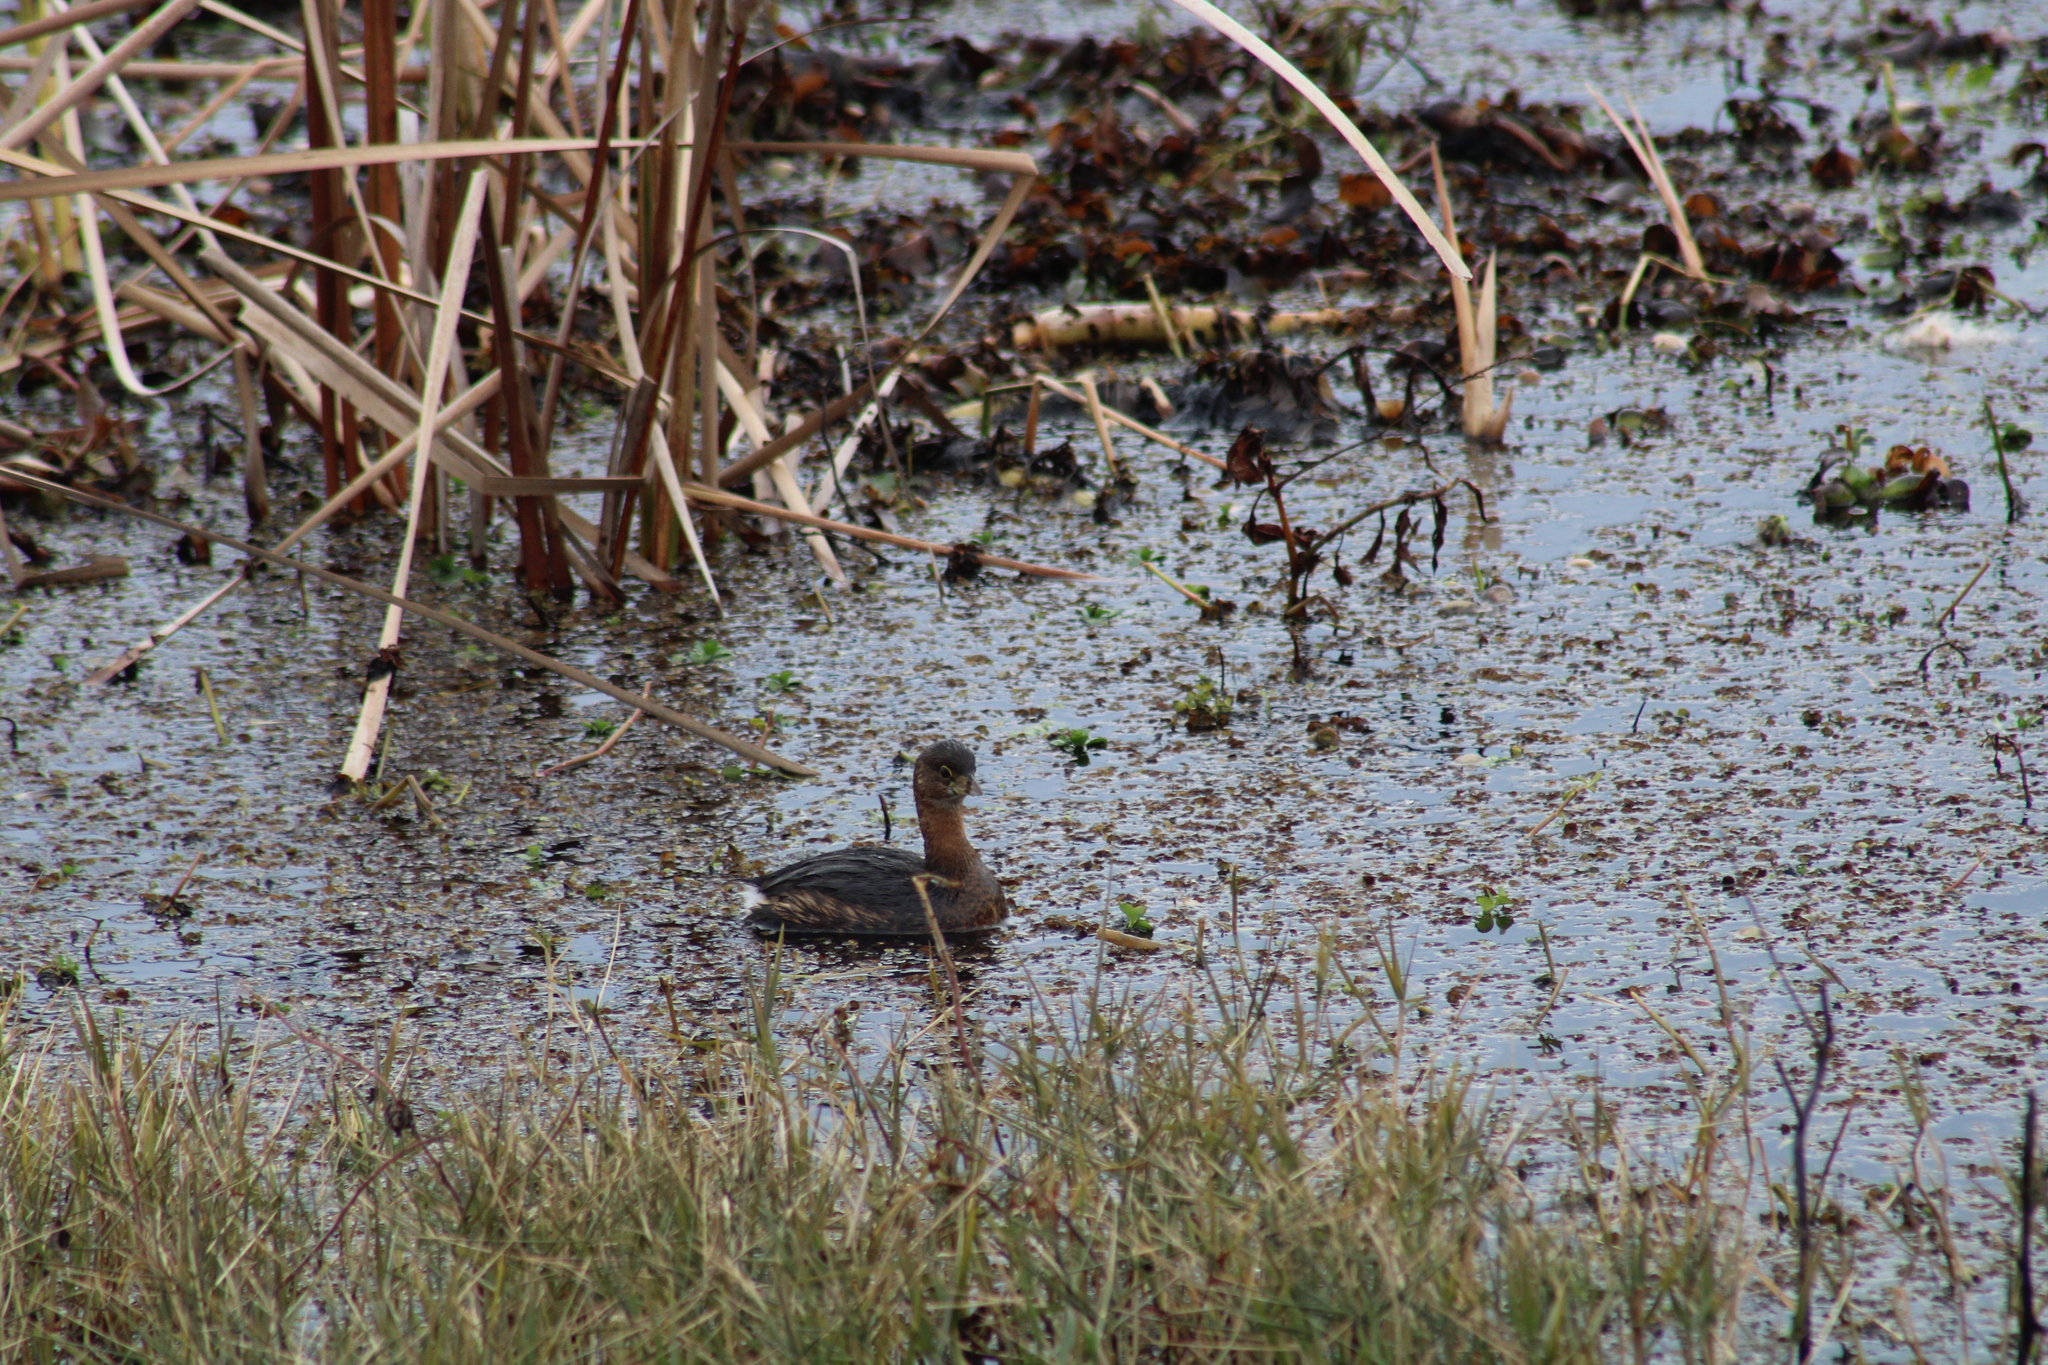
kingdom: Animalia
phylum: Chordata
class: Aves
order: Podicipediformes
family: Podicipedidae
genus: Podilymbus
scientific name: Podilymbus podiceps
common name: Pied-billed grebe
